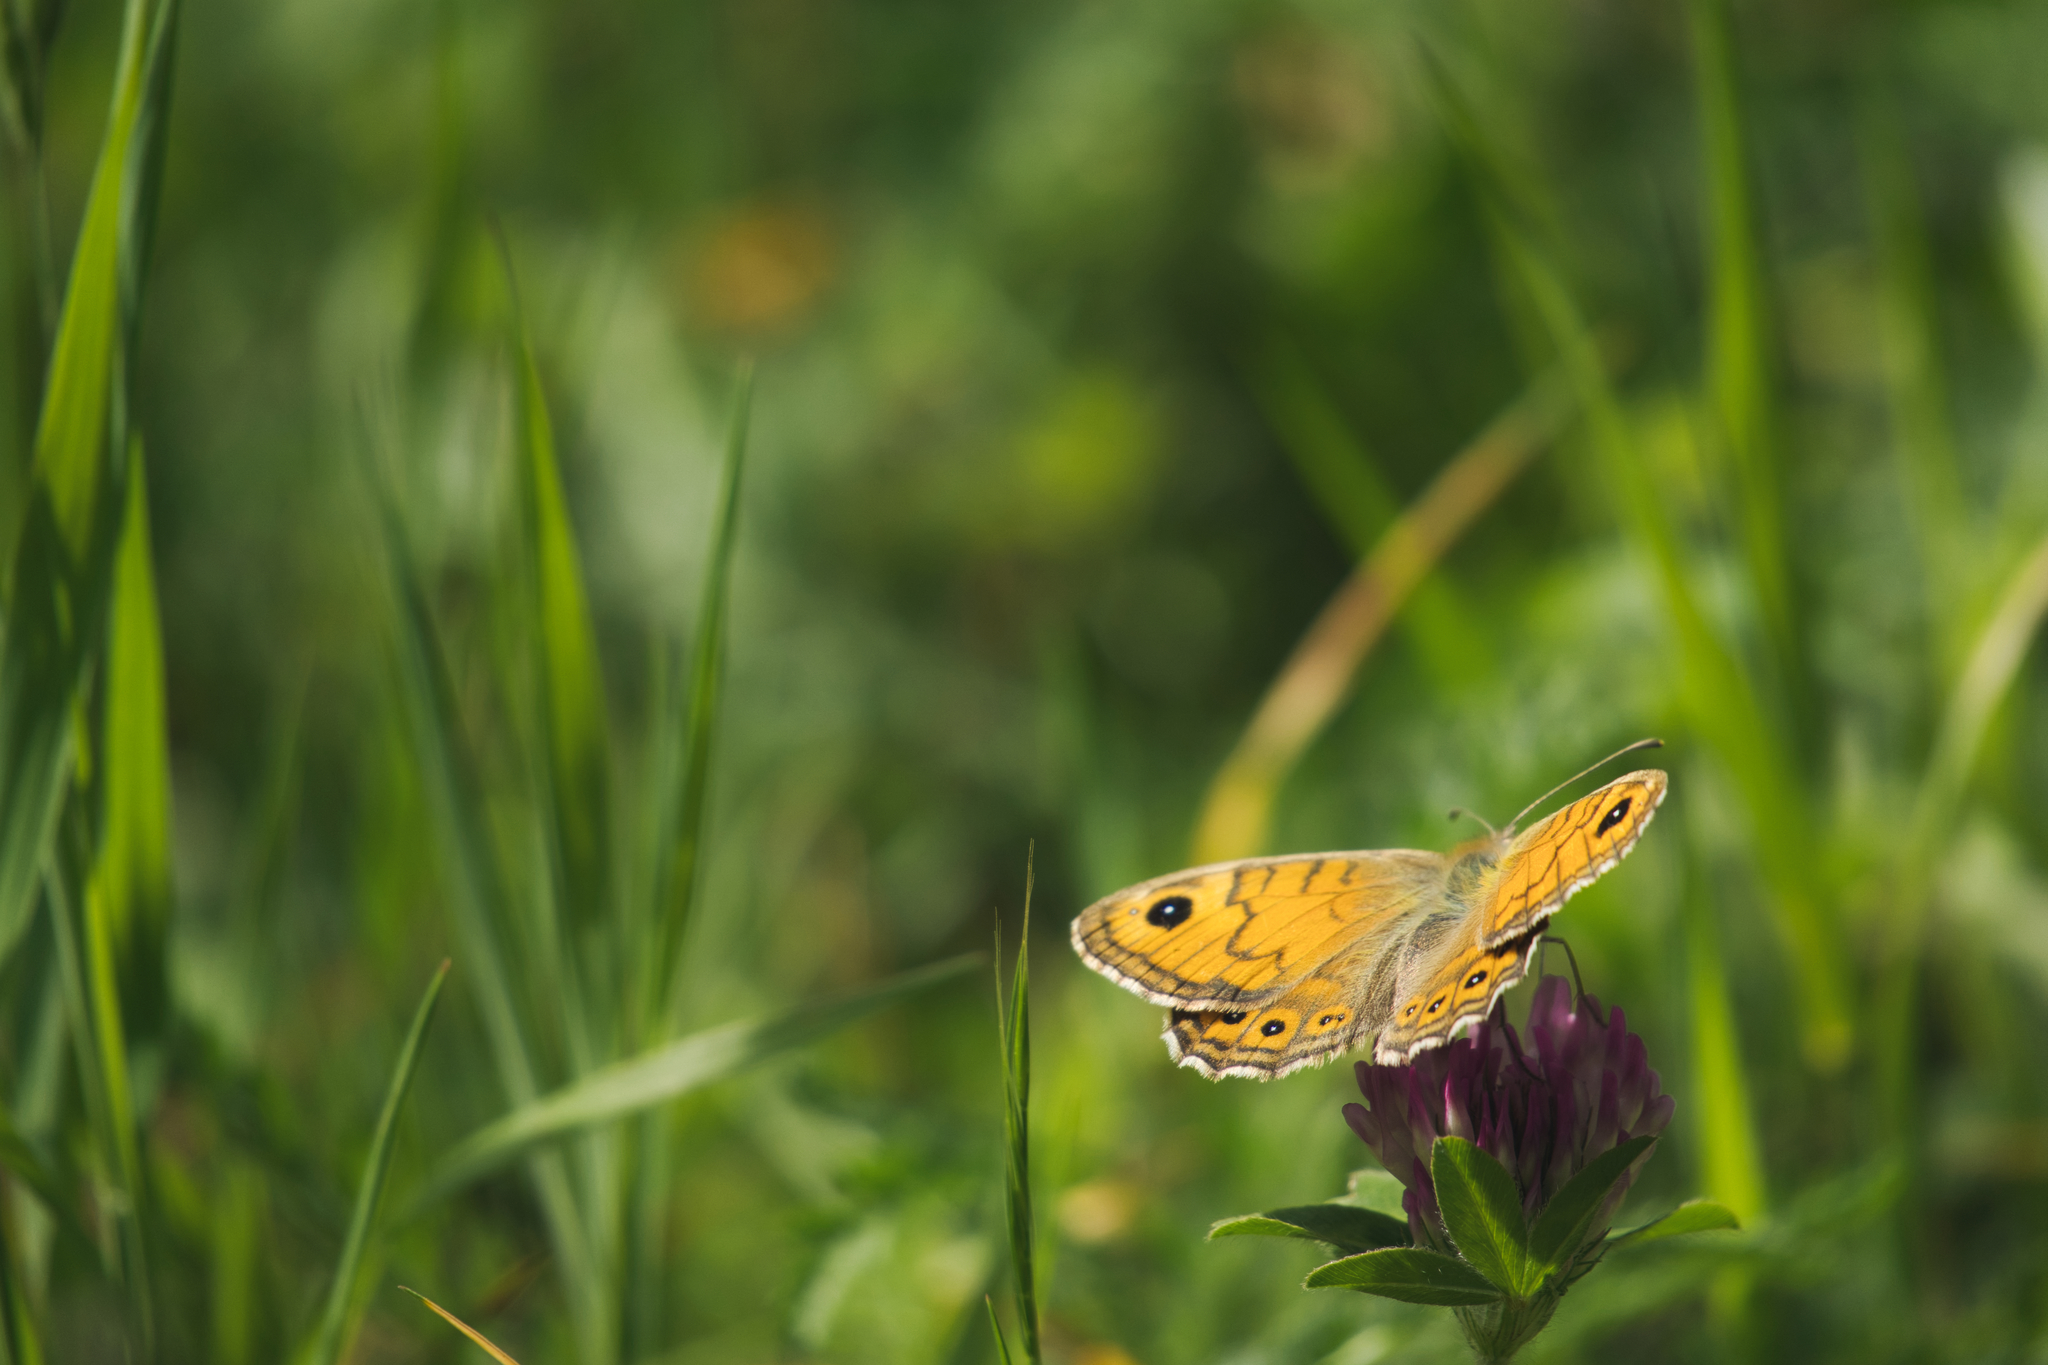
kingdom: Animalia
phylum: Arthropoda
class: Insecta
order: Lepidoptera
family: Nymphalidae
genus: Pararge
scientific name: Pararge Lasiommata megera
